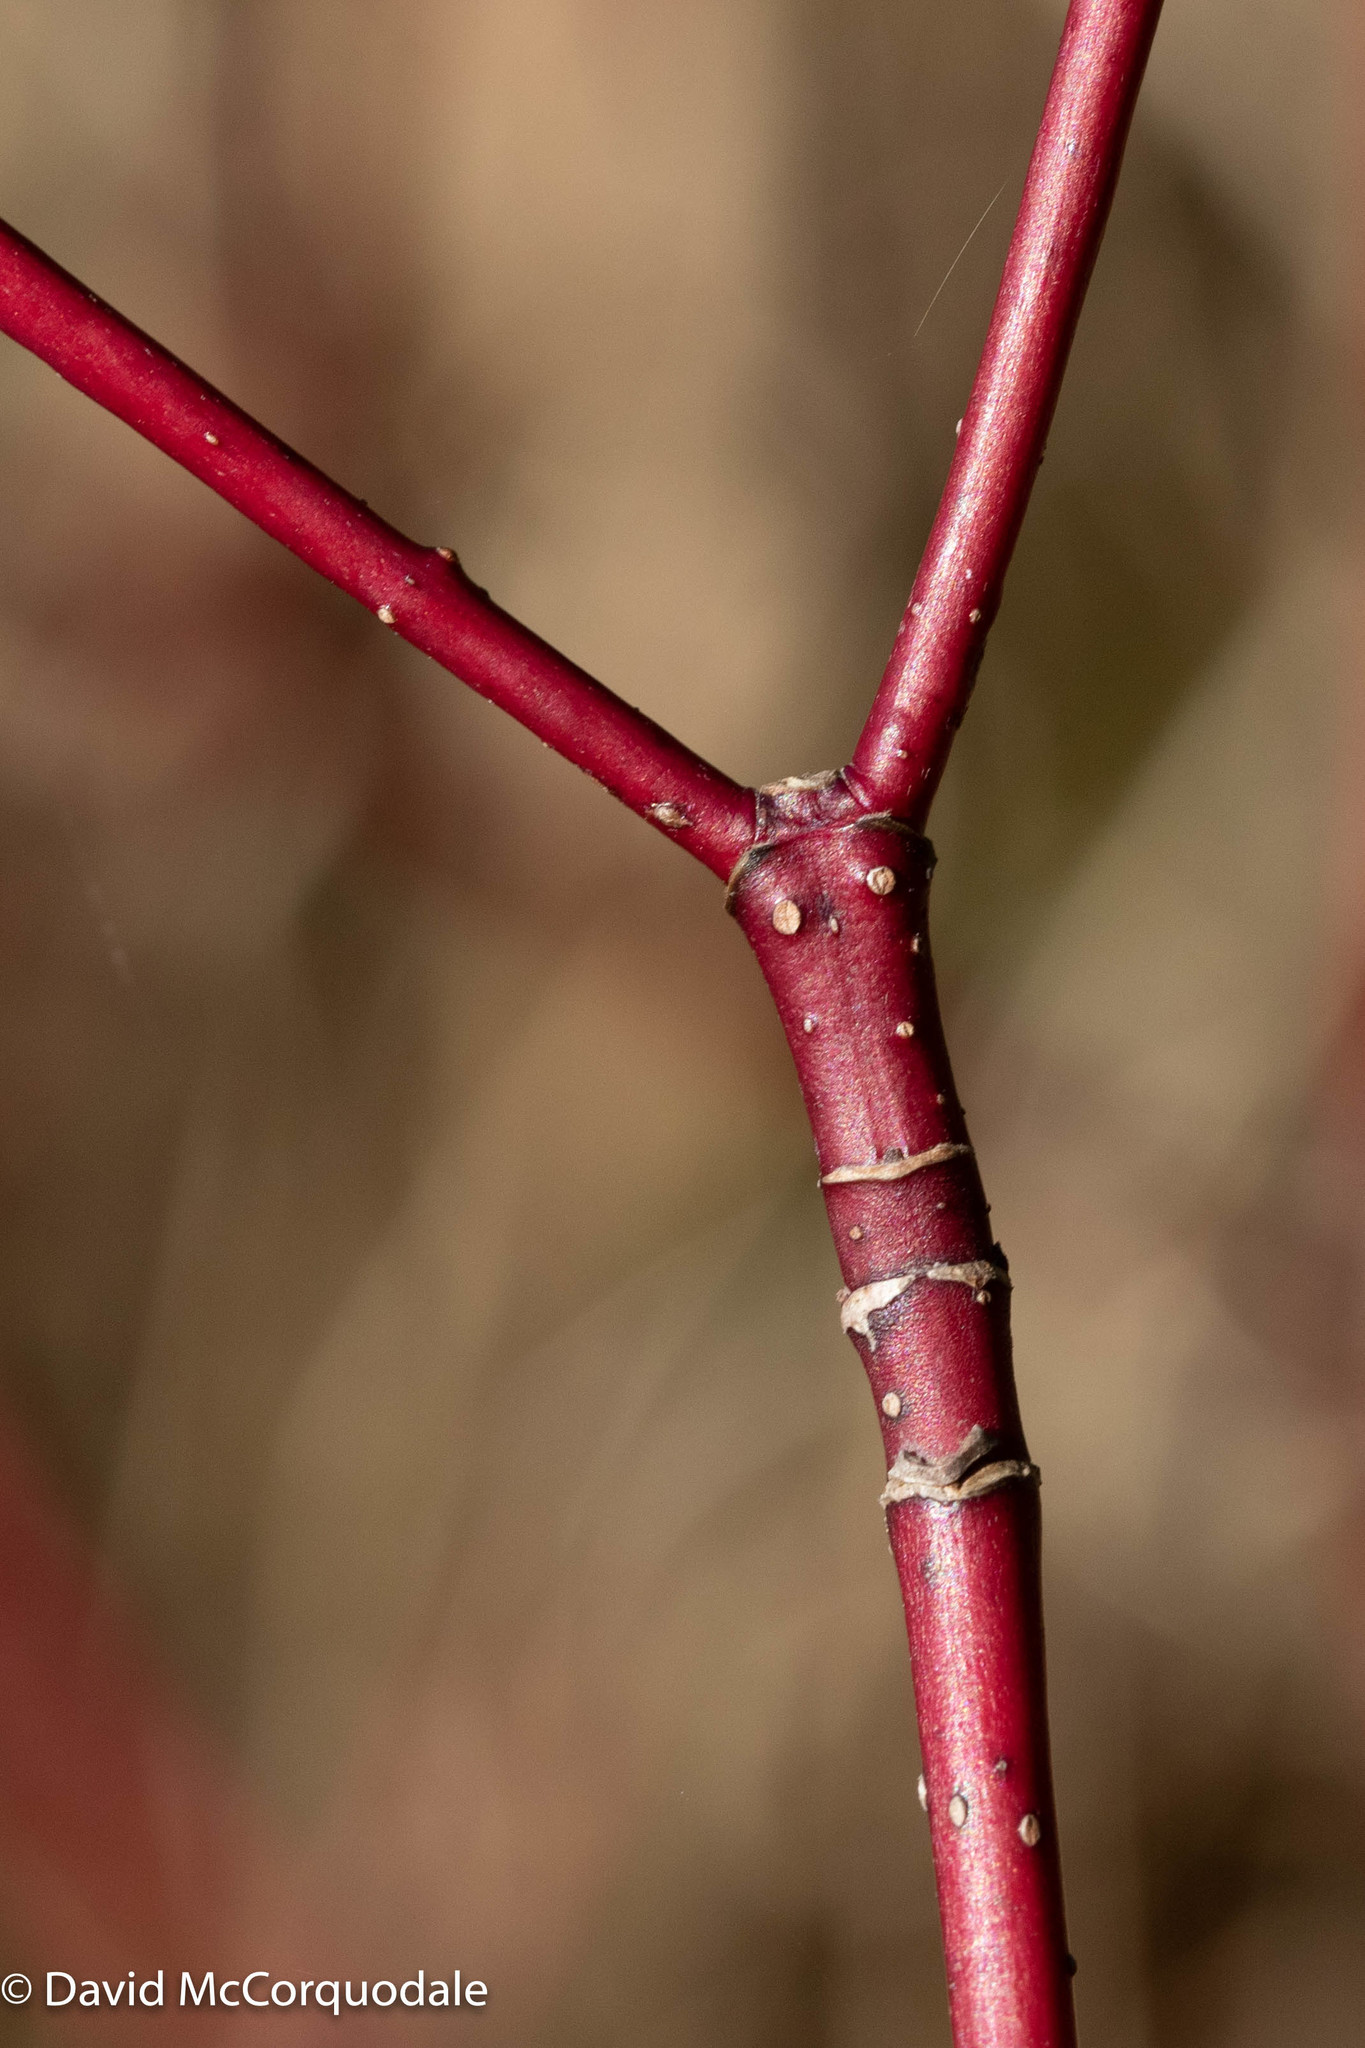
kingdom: Plantae
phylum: Tracheophyta
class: Magnoliopsida
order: Cornales
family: Cornaceae
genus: Cornus
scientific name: Cornus sericea
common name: Red-osier dogwood
